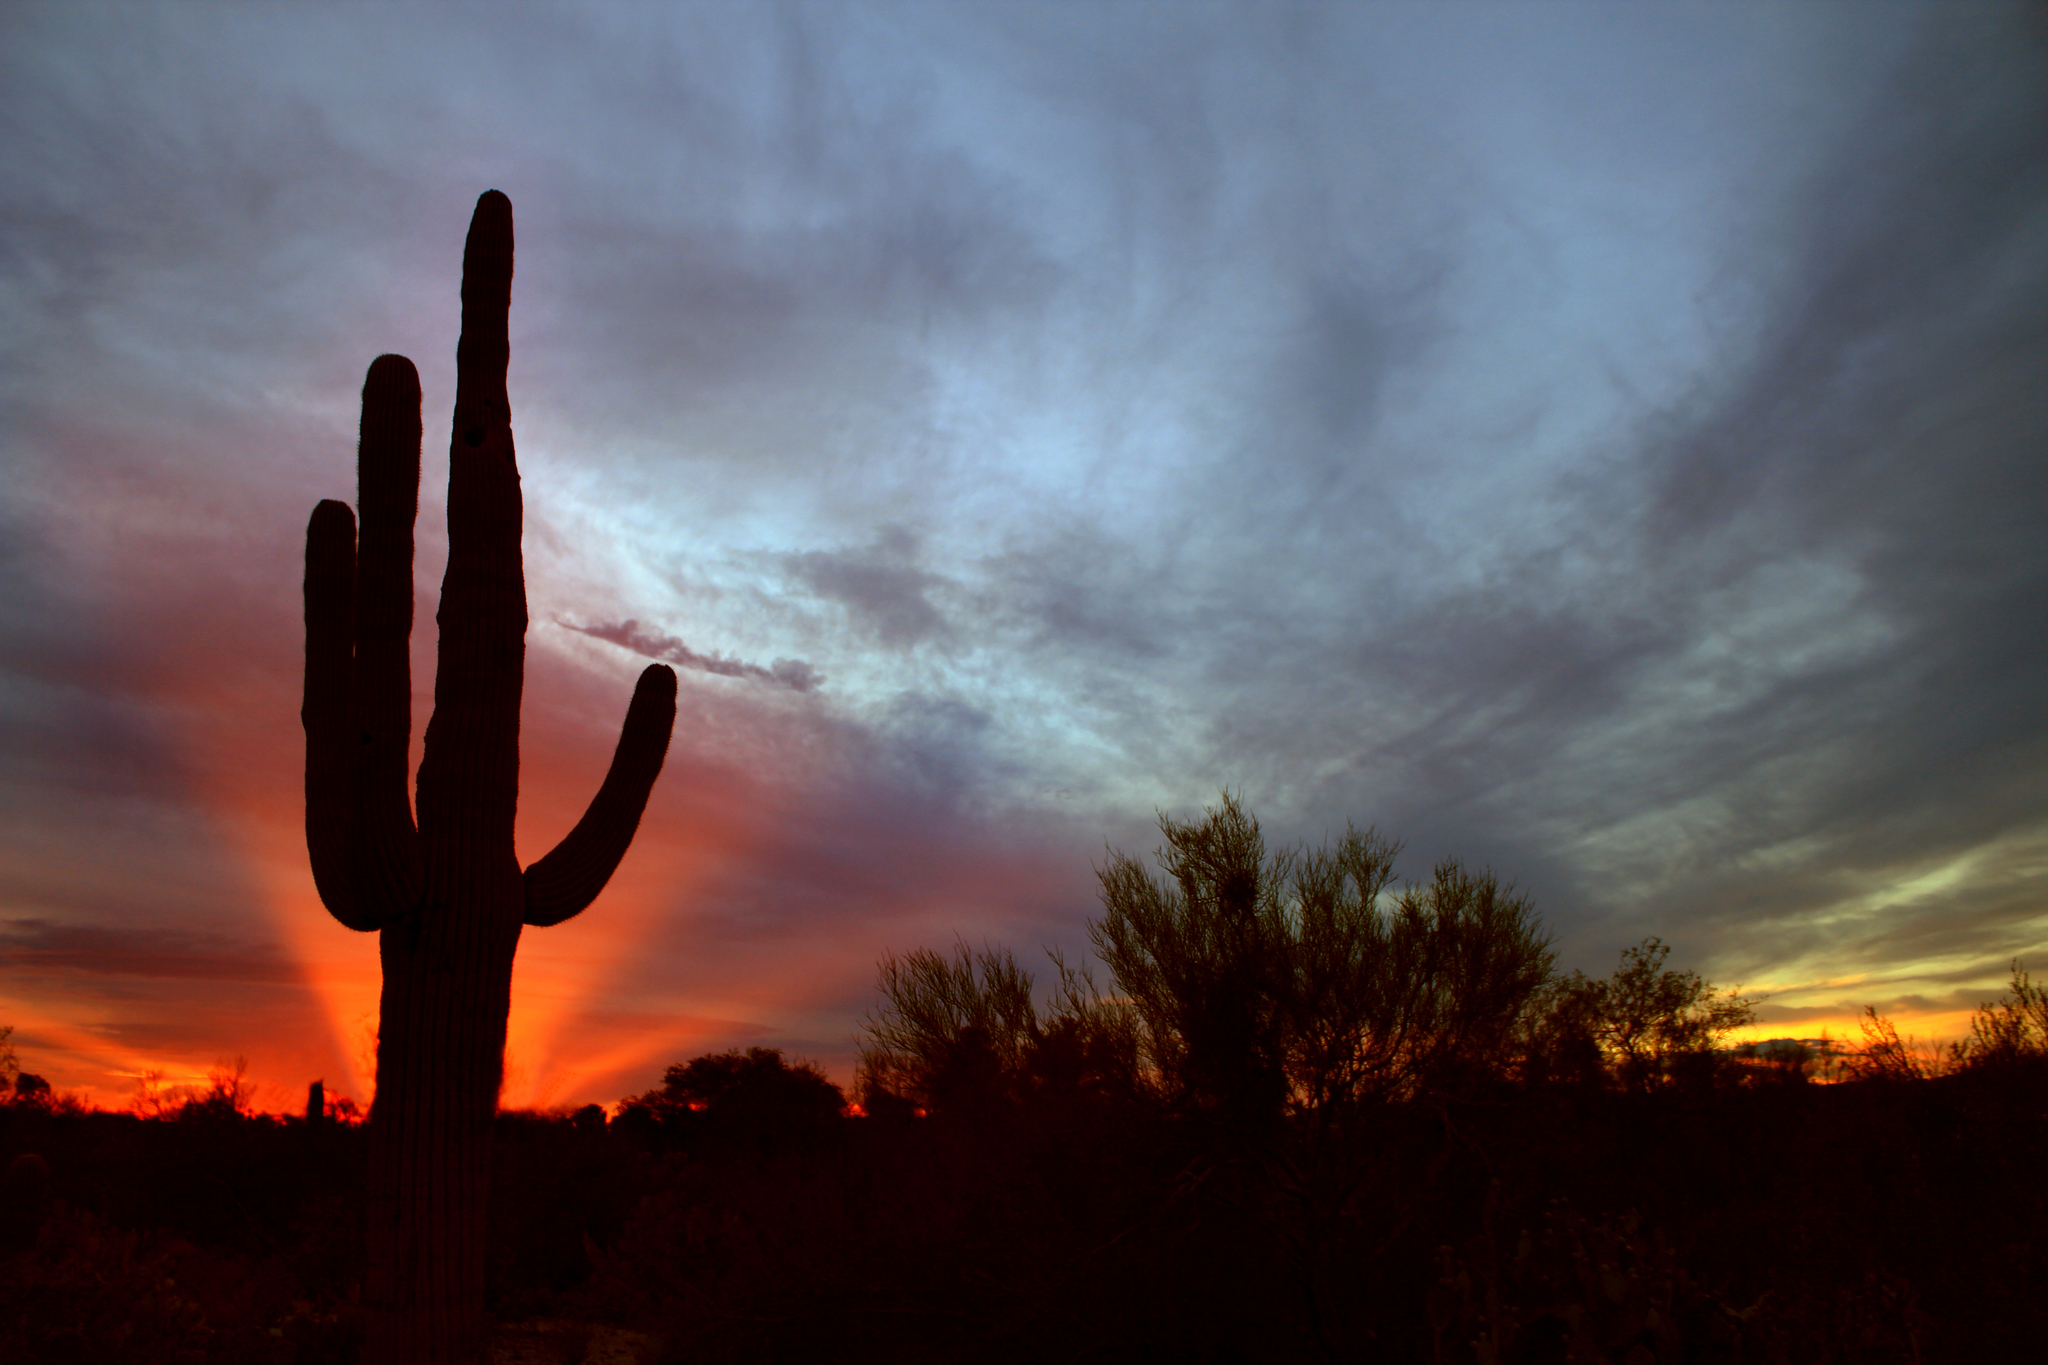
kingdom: Plantae
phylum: Tracheophyta
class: Magnoliopsida
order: Caryophyllales
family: Cactaceae
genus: Carnegiea
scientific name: Carnegiea gigantea
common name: Saguaro
